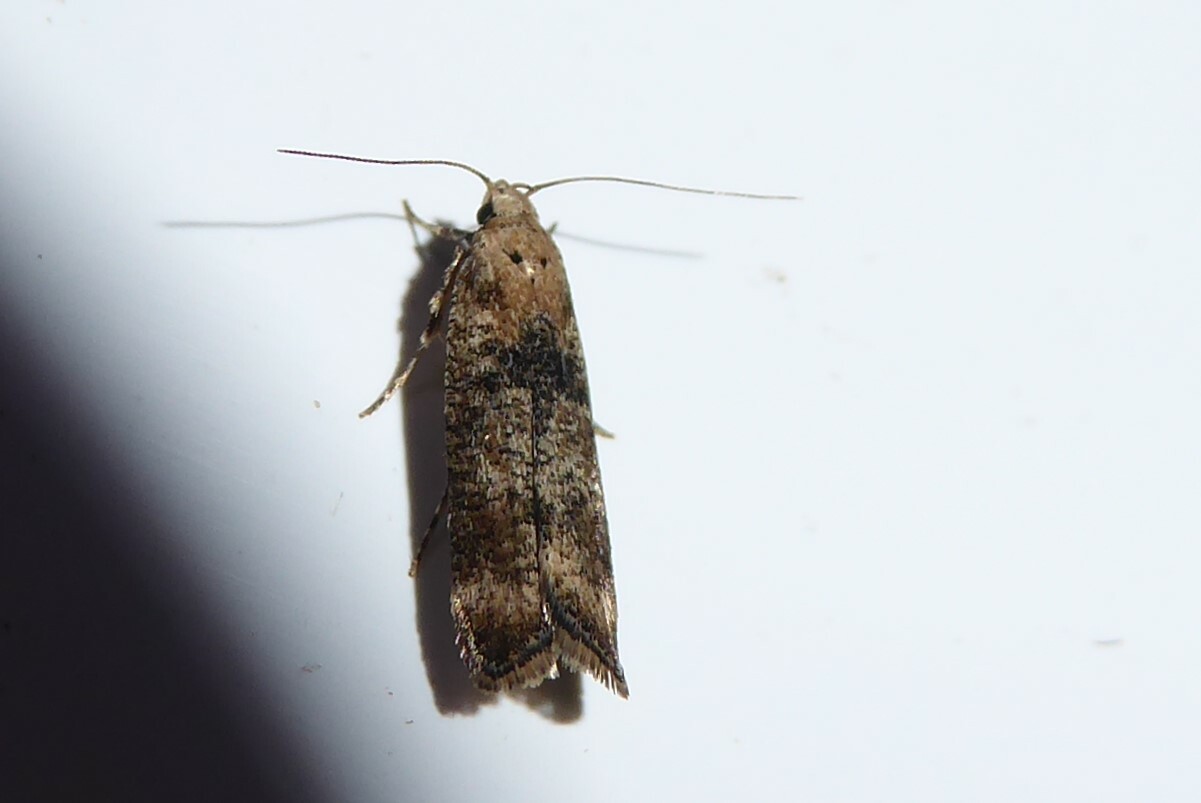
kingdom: Animalia
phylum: Arthropoda
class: Insecta
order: Lepidoptera
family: Gelechiidae
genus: Anisoplaca
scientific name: Anisoplaca acrodactyla
